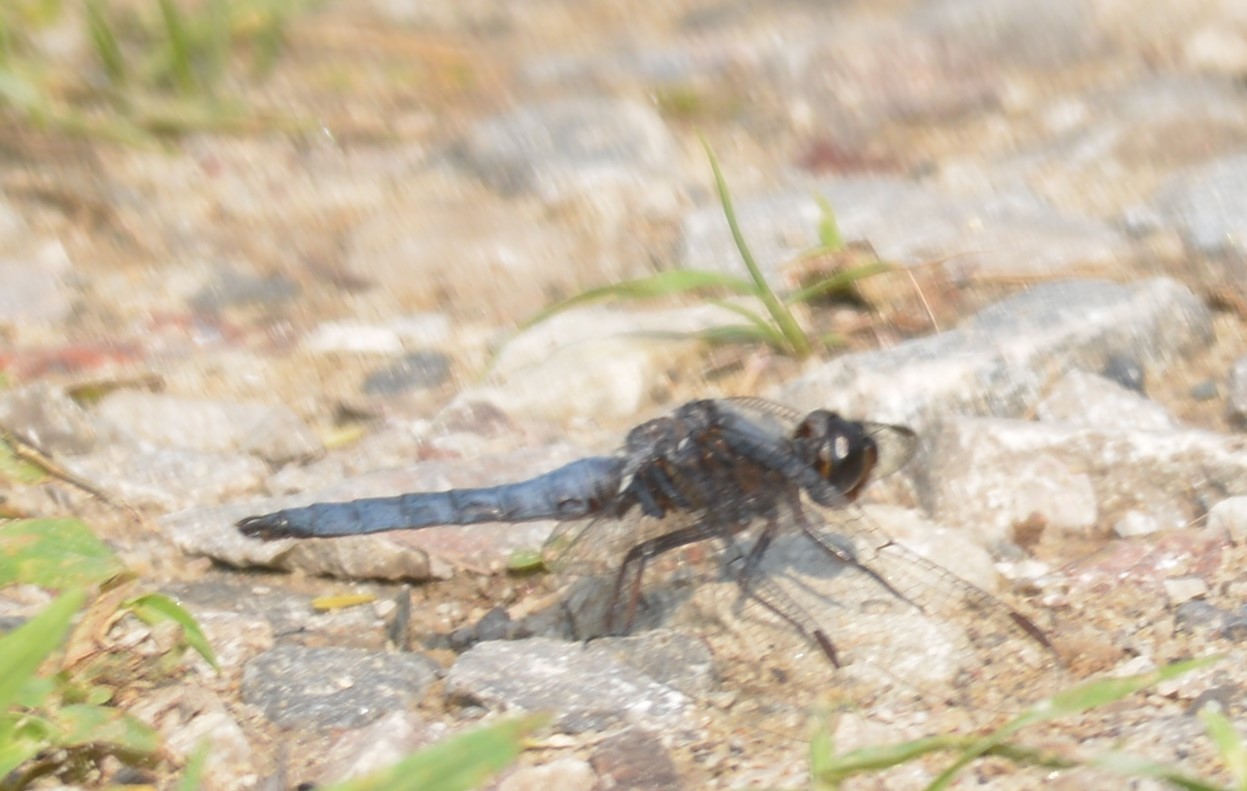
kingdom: Animalia
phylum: Arthropoda
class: Insecta
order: Odonata
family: Libellulidae
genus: Ladona
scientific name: Ladona deplanata
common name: Blue corporal
